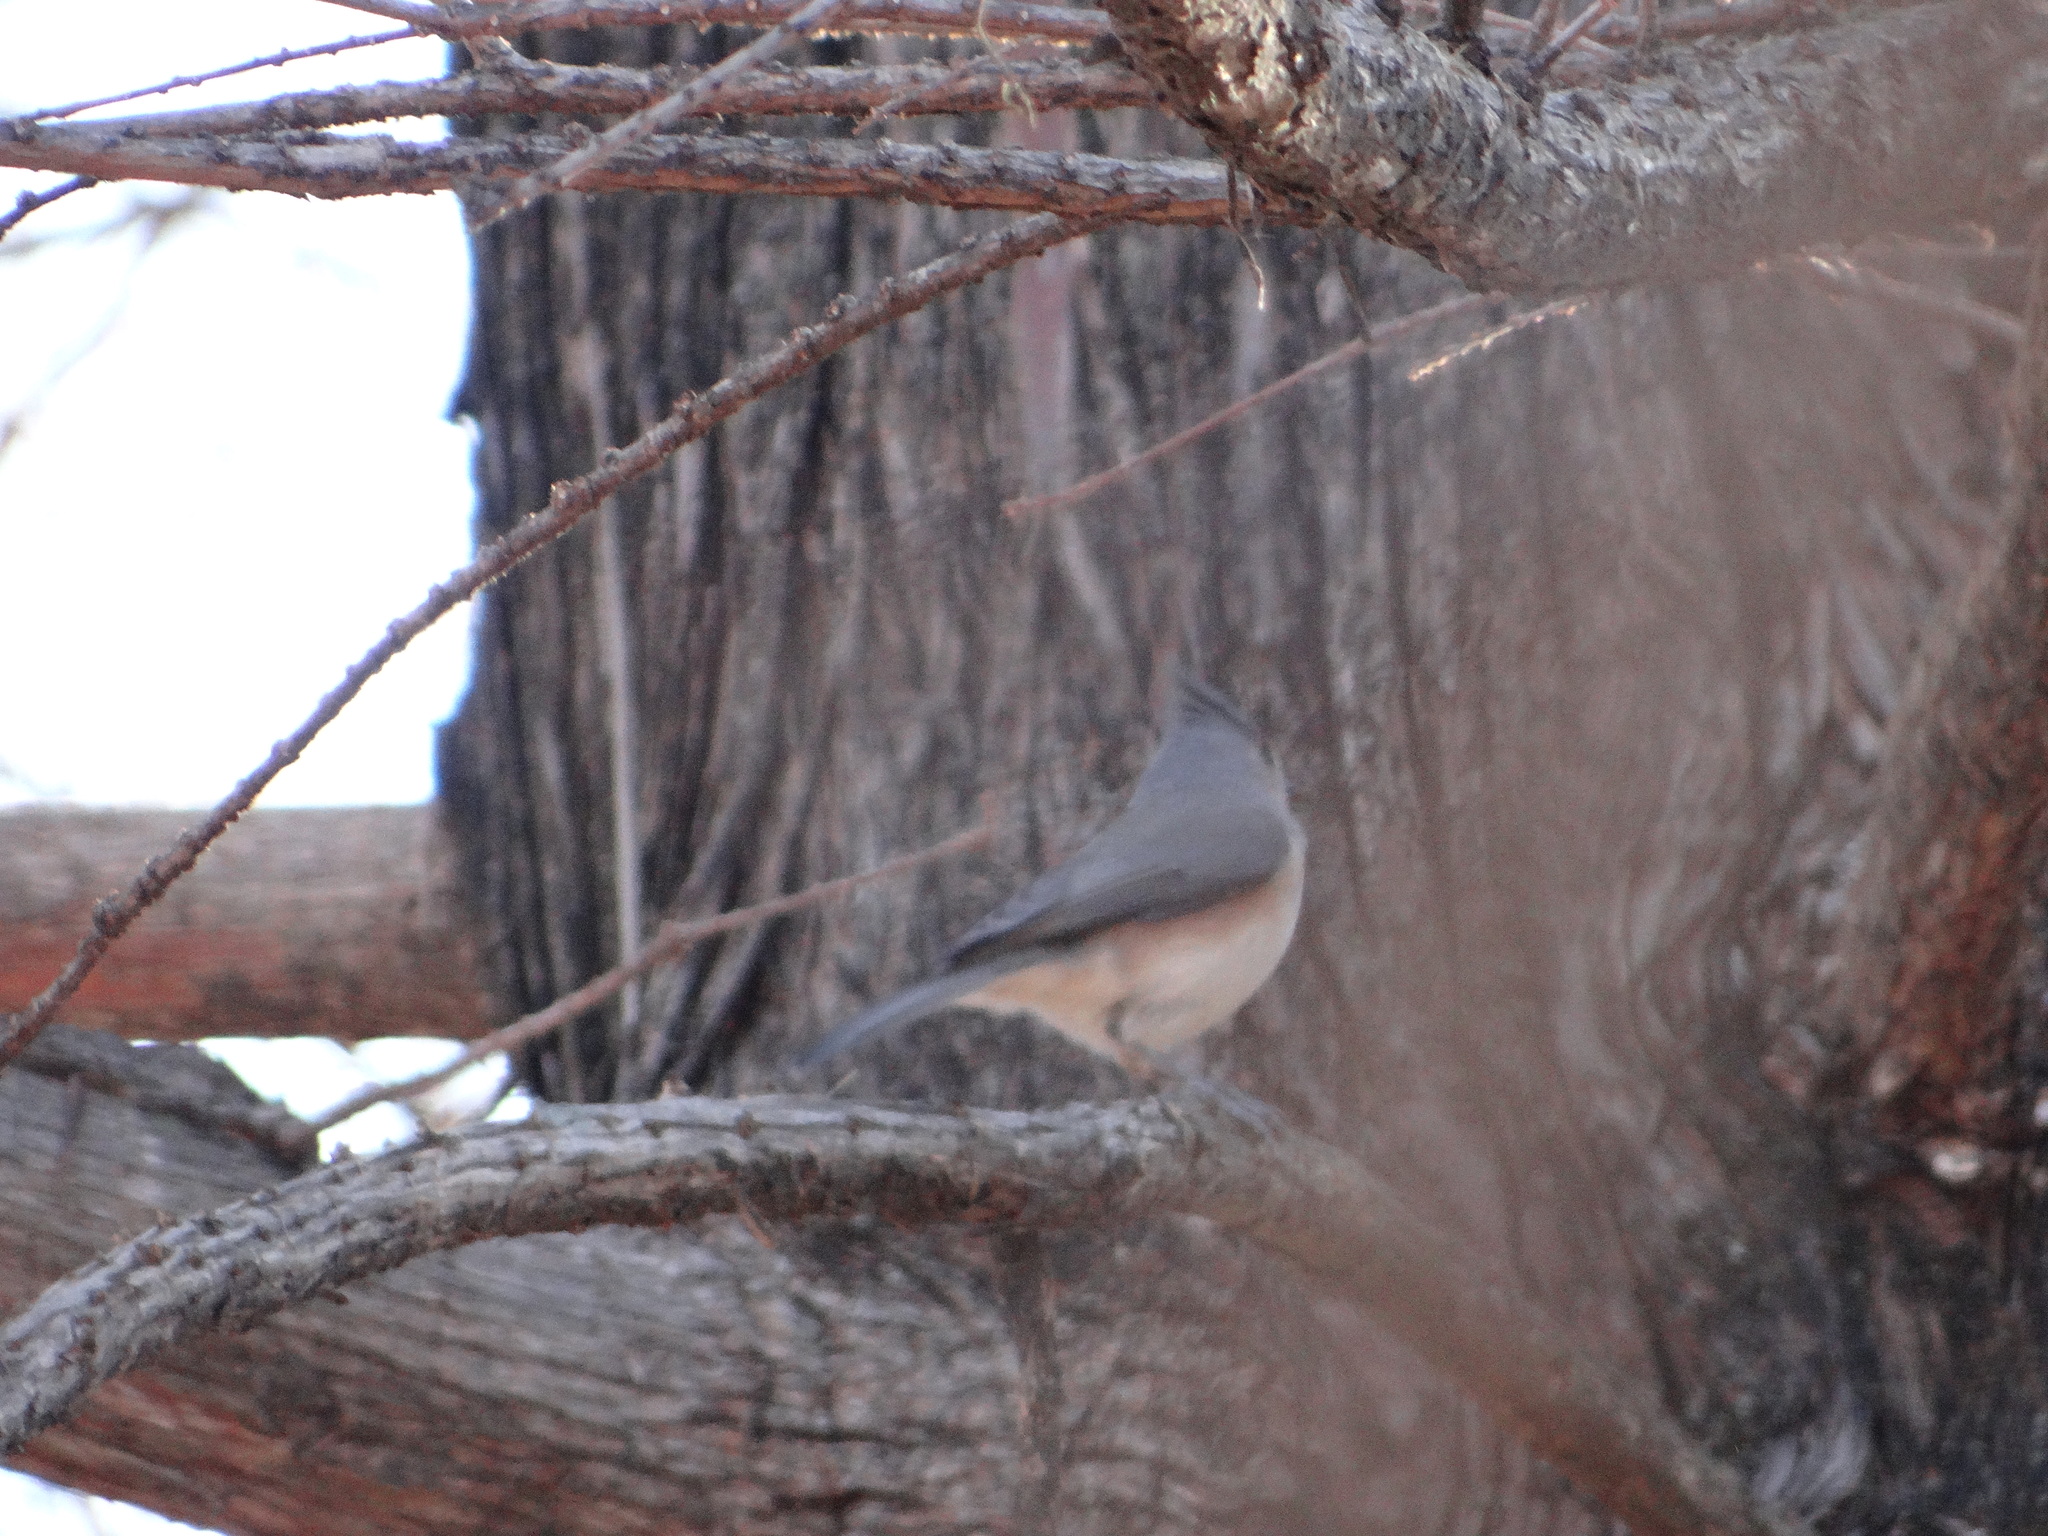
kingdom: Animalia
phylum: Chordata
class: Aves
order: Passeriformes
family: Paridae
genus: Baeolophus
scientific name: Baeolophus bicolor
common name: Tufted titmouse
